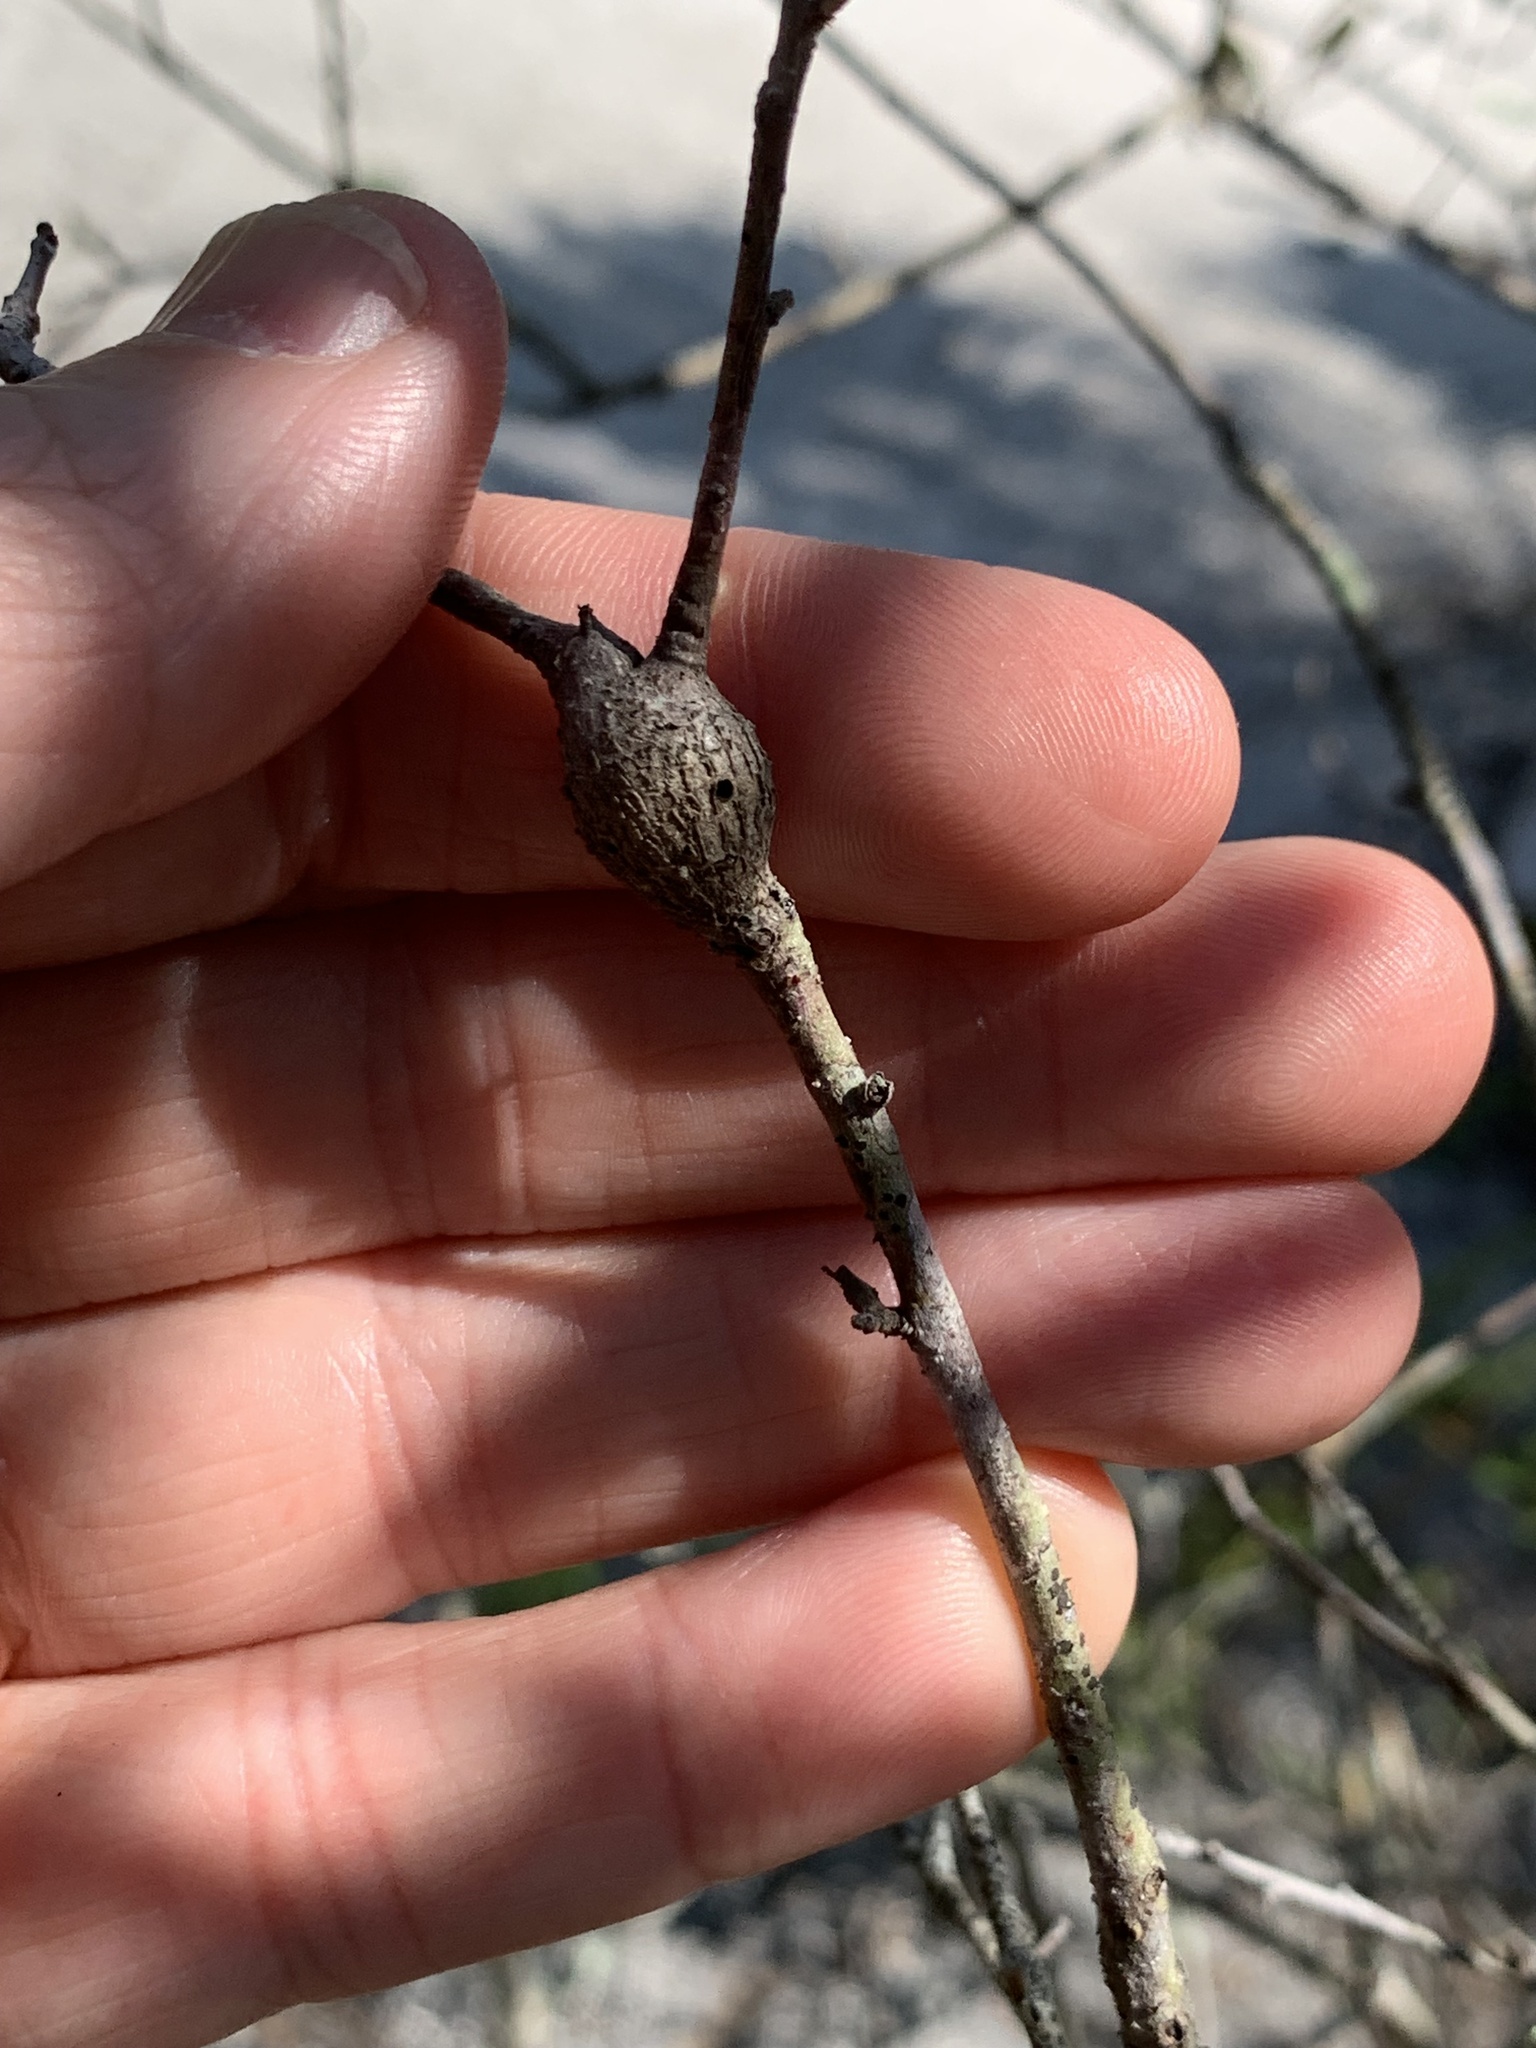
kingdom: Animalia
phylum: Arthropoda
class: Insecta
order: Hymenoptera
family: Cynipidae
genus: Callirhytis
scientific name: Callirhytis
